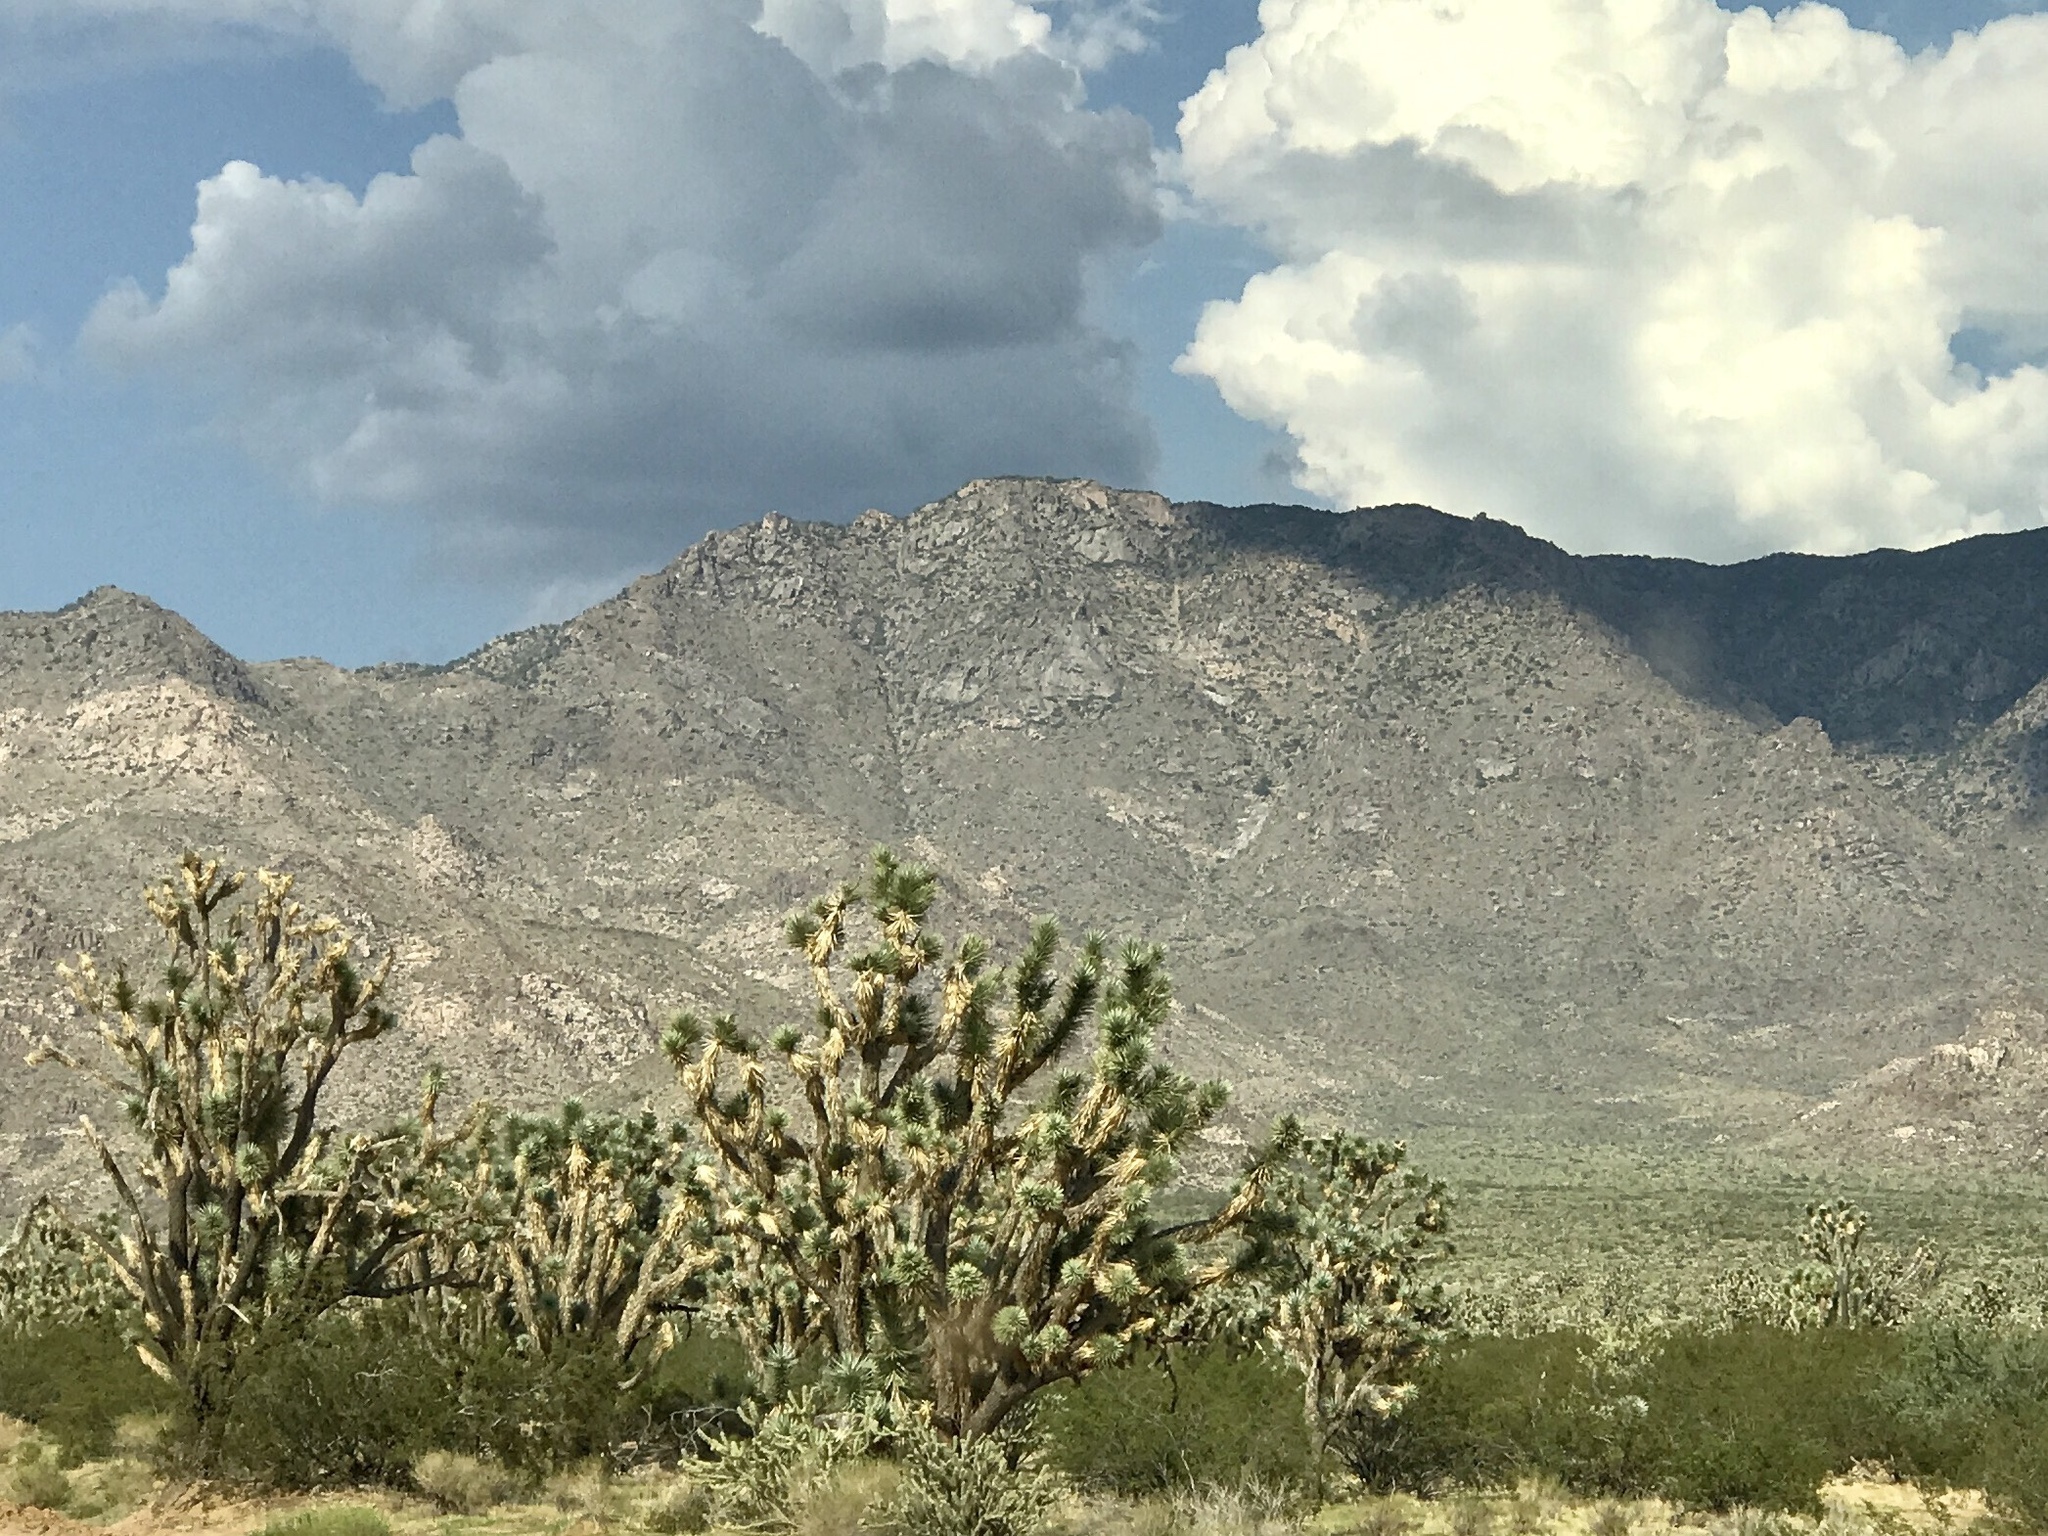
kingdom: Plantae
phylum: Tracheophyta
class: Liliopsida
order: Asparagales
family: Asparagaceae
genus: Yucca
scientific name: Yucca brevifolia
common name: Joshua tree
